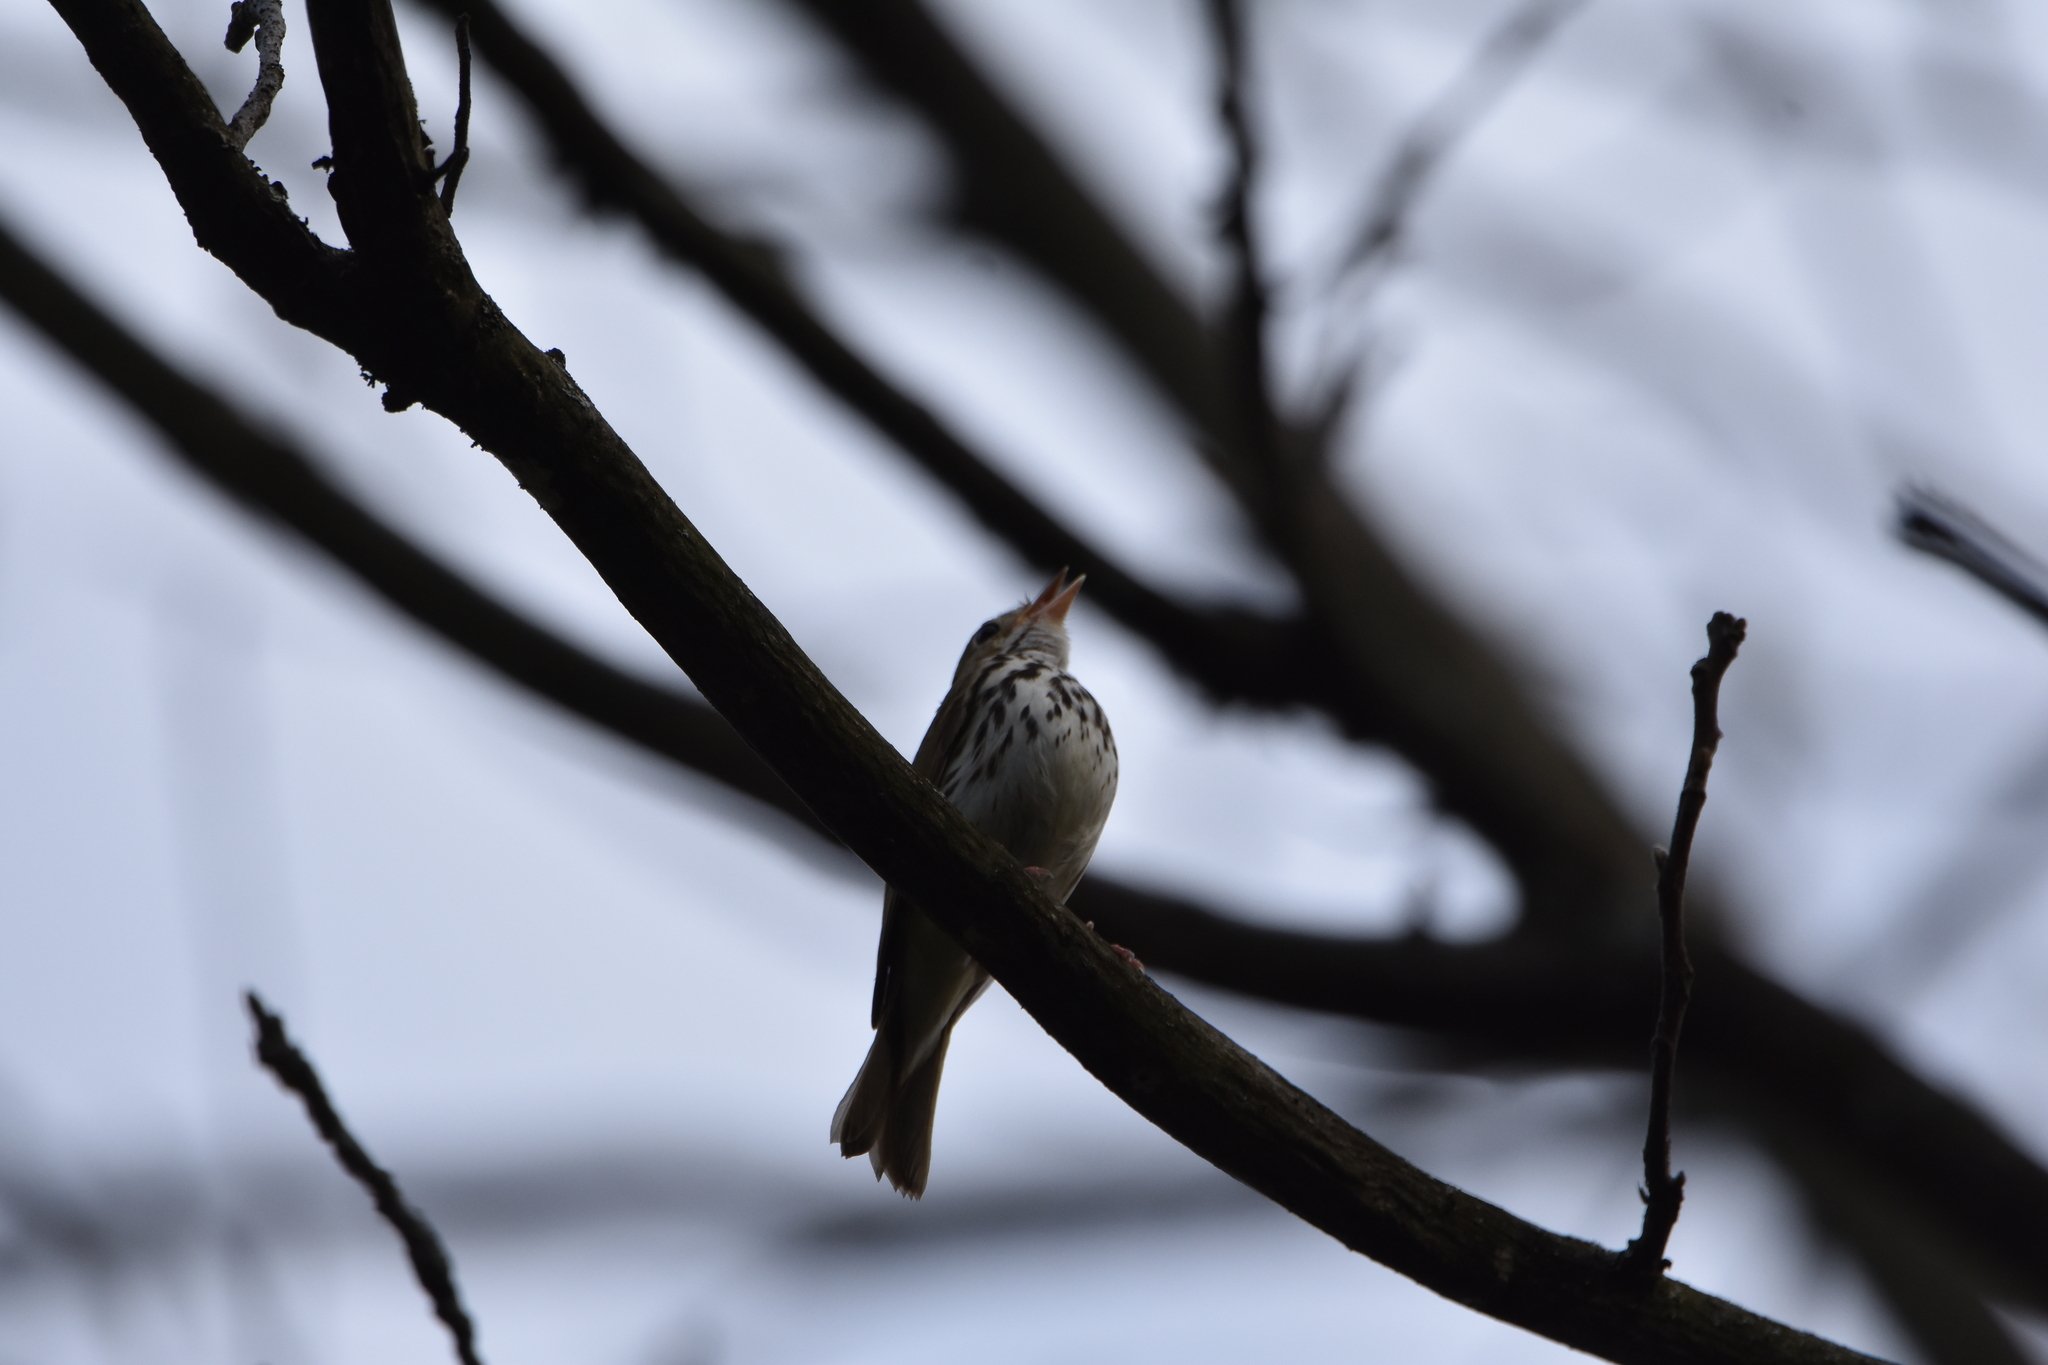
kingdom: Animalia
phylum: Chordata
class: Aves
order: Passeriformes
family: Parulidae
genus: Seiurus
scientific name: Seiurus aurocapilla
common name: Ovenbird
